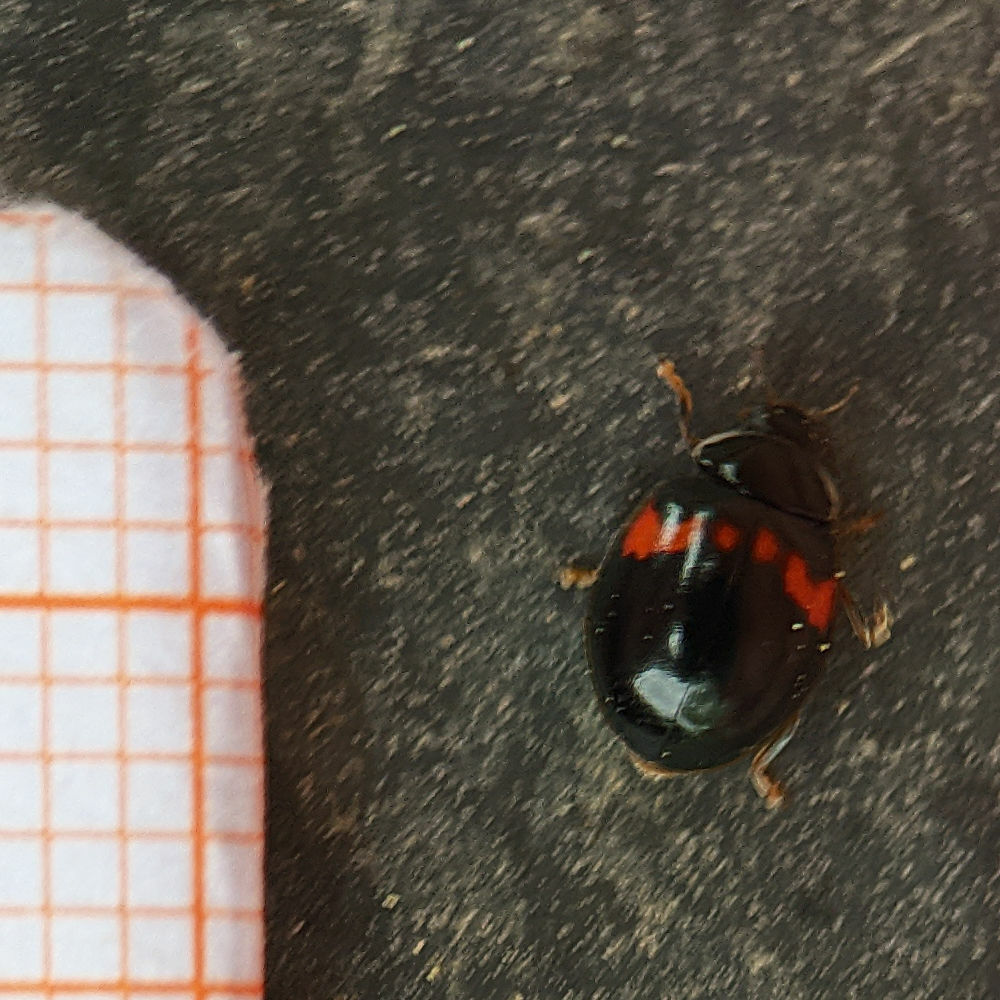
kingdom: Animalia
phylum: Arthropoda
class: Insecta
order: Coleoptera
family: Coccinellidae
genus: Adalia
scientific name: Adalia decempunctata
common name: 10-spot ladybird
